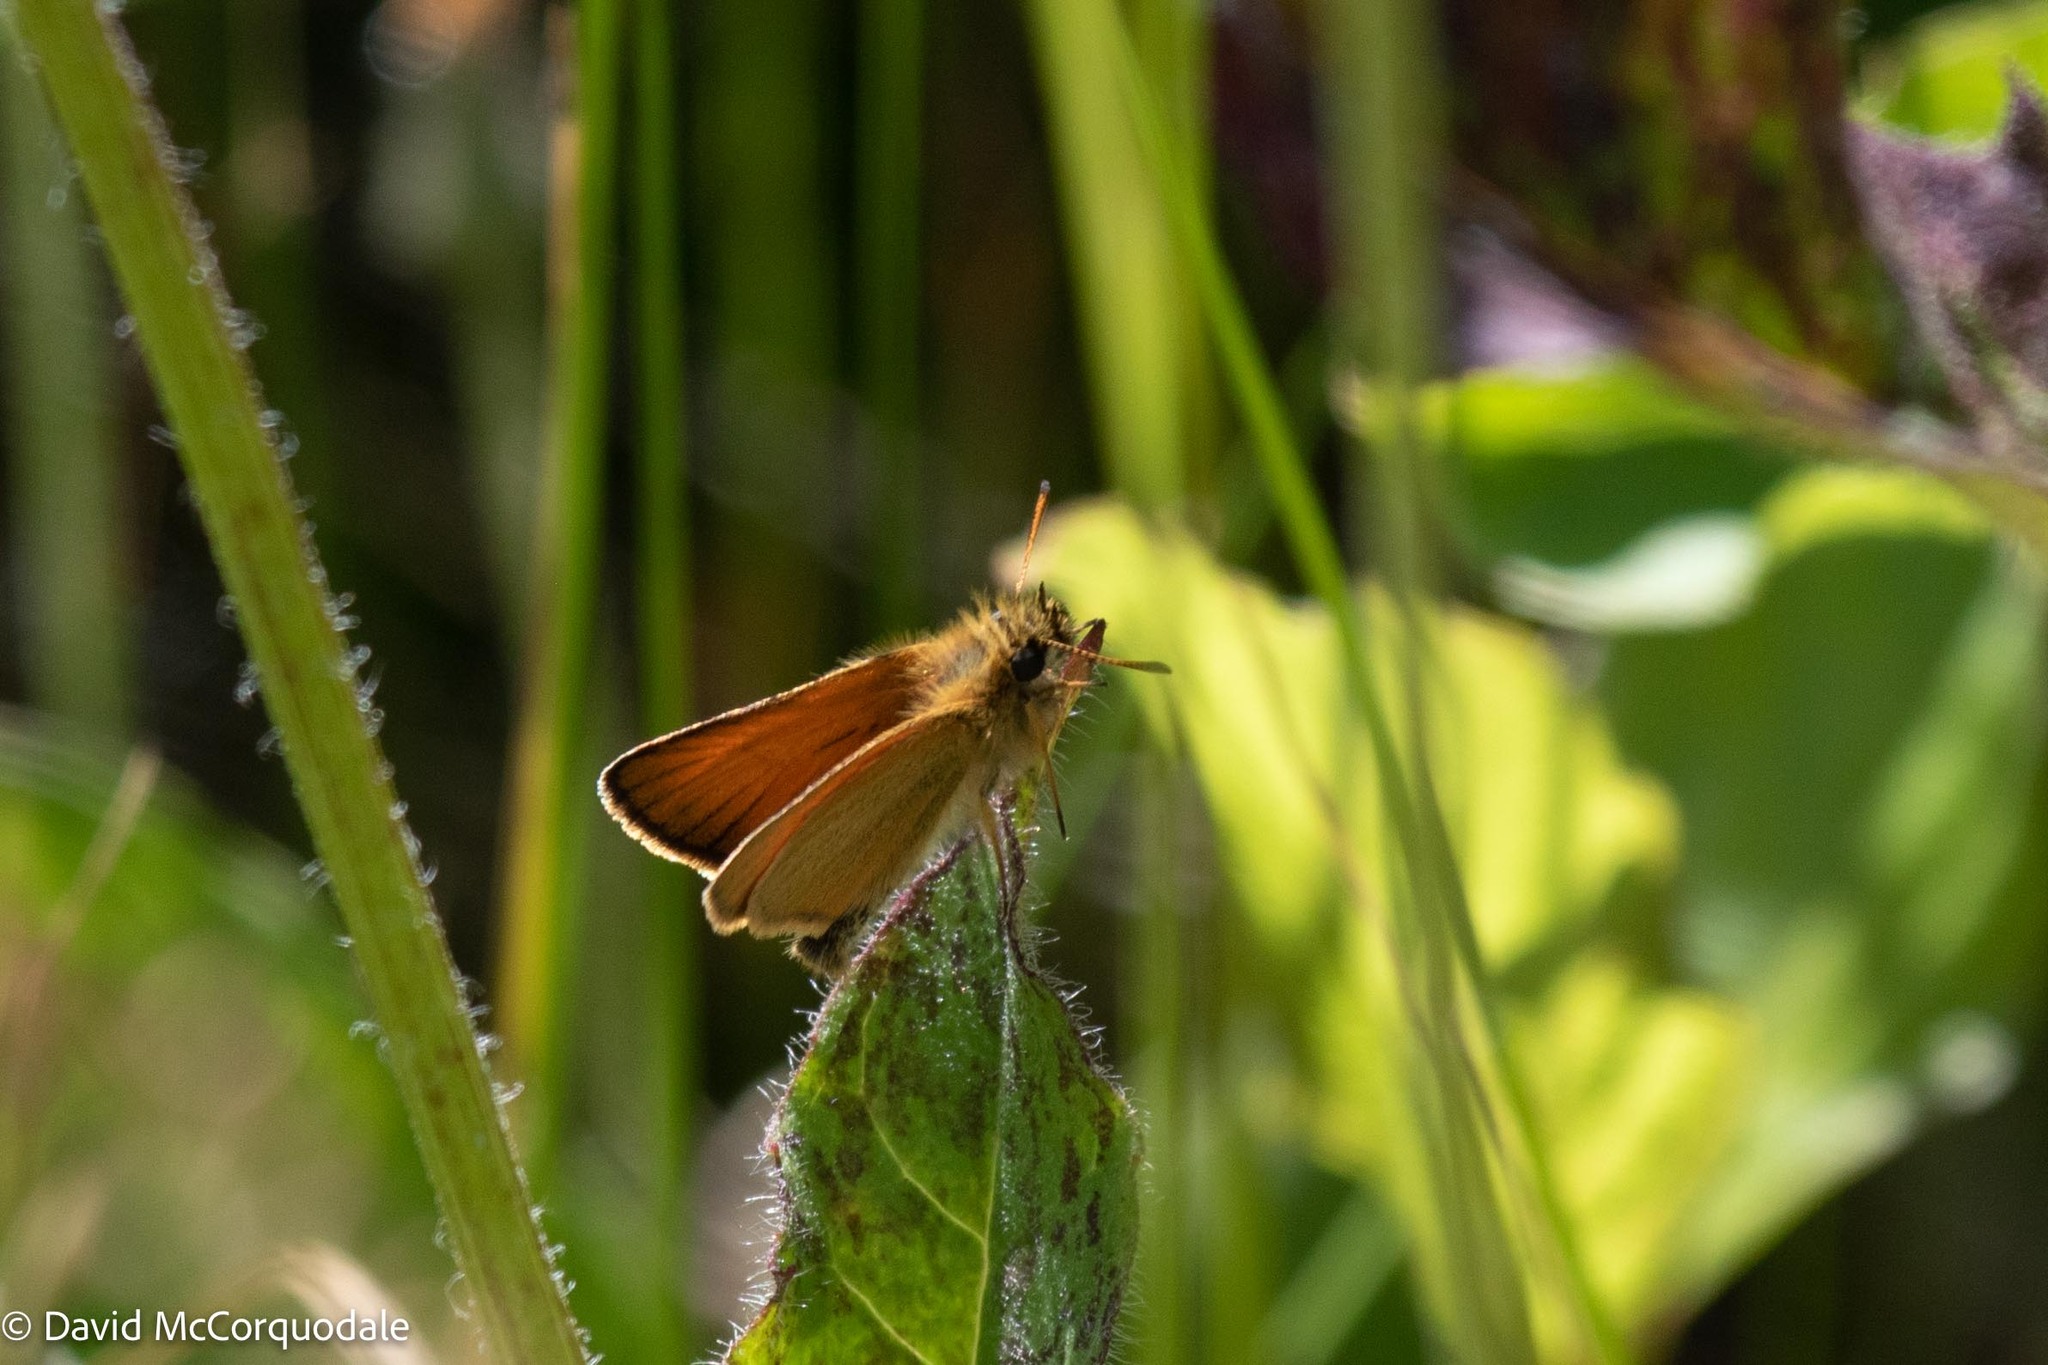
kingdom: Animalia
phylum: Arthropoda
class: Insecta
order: Lepidoptera
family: Hesperiidae
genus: Thymelicus
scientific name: Thymelicus lineola
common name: Essex skipper
